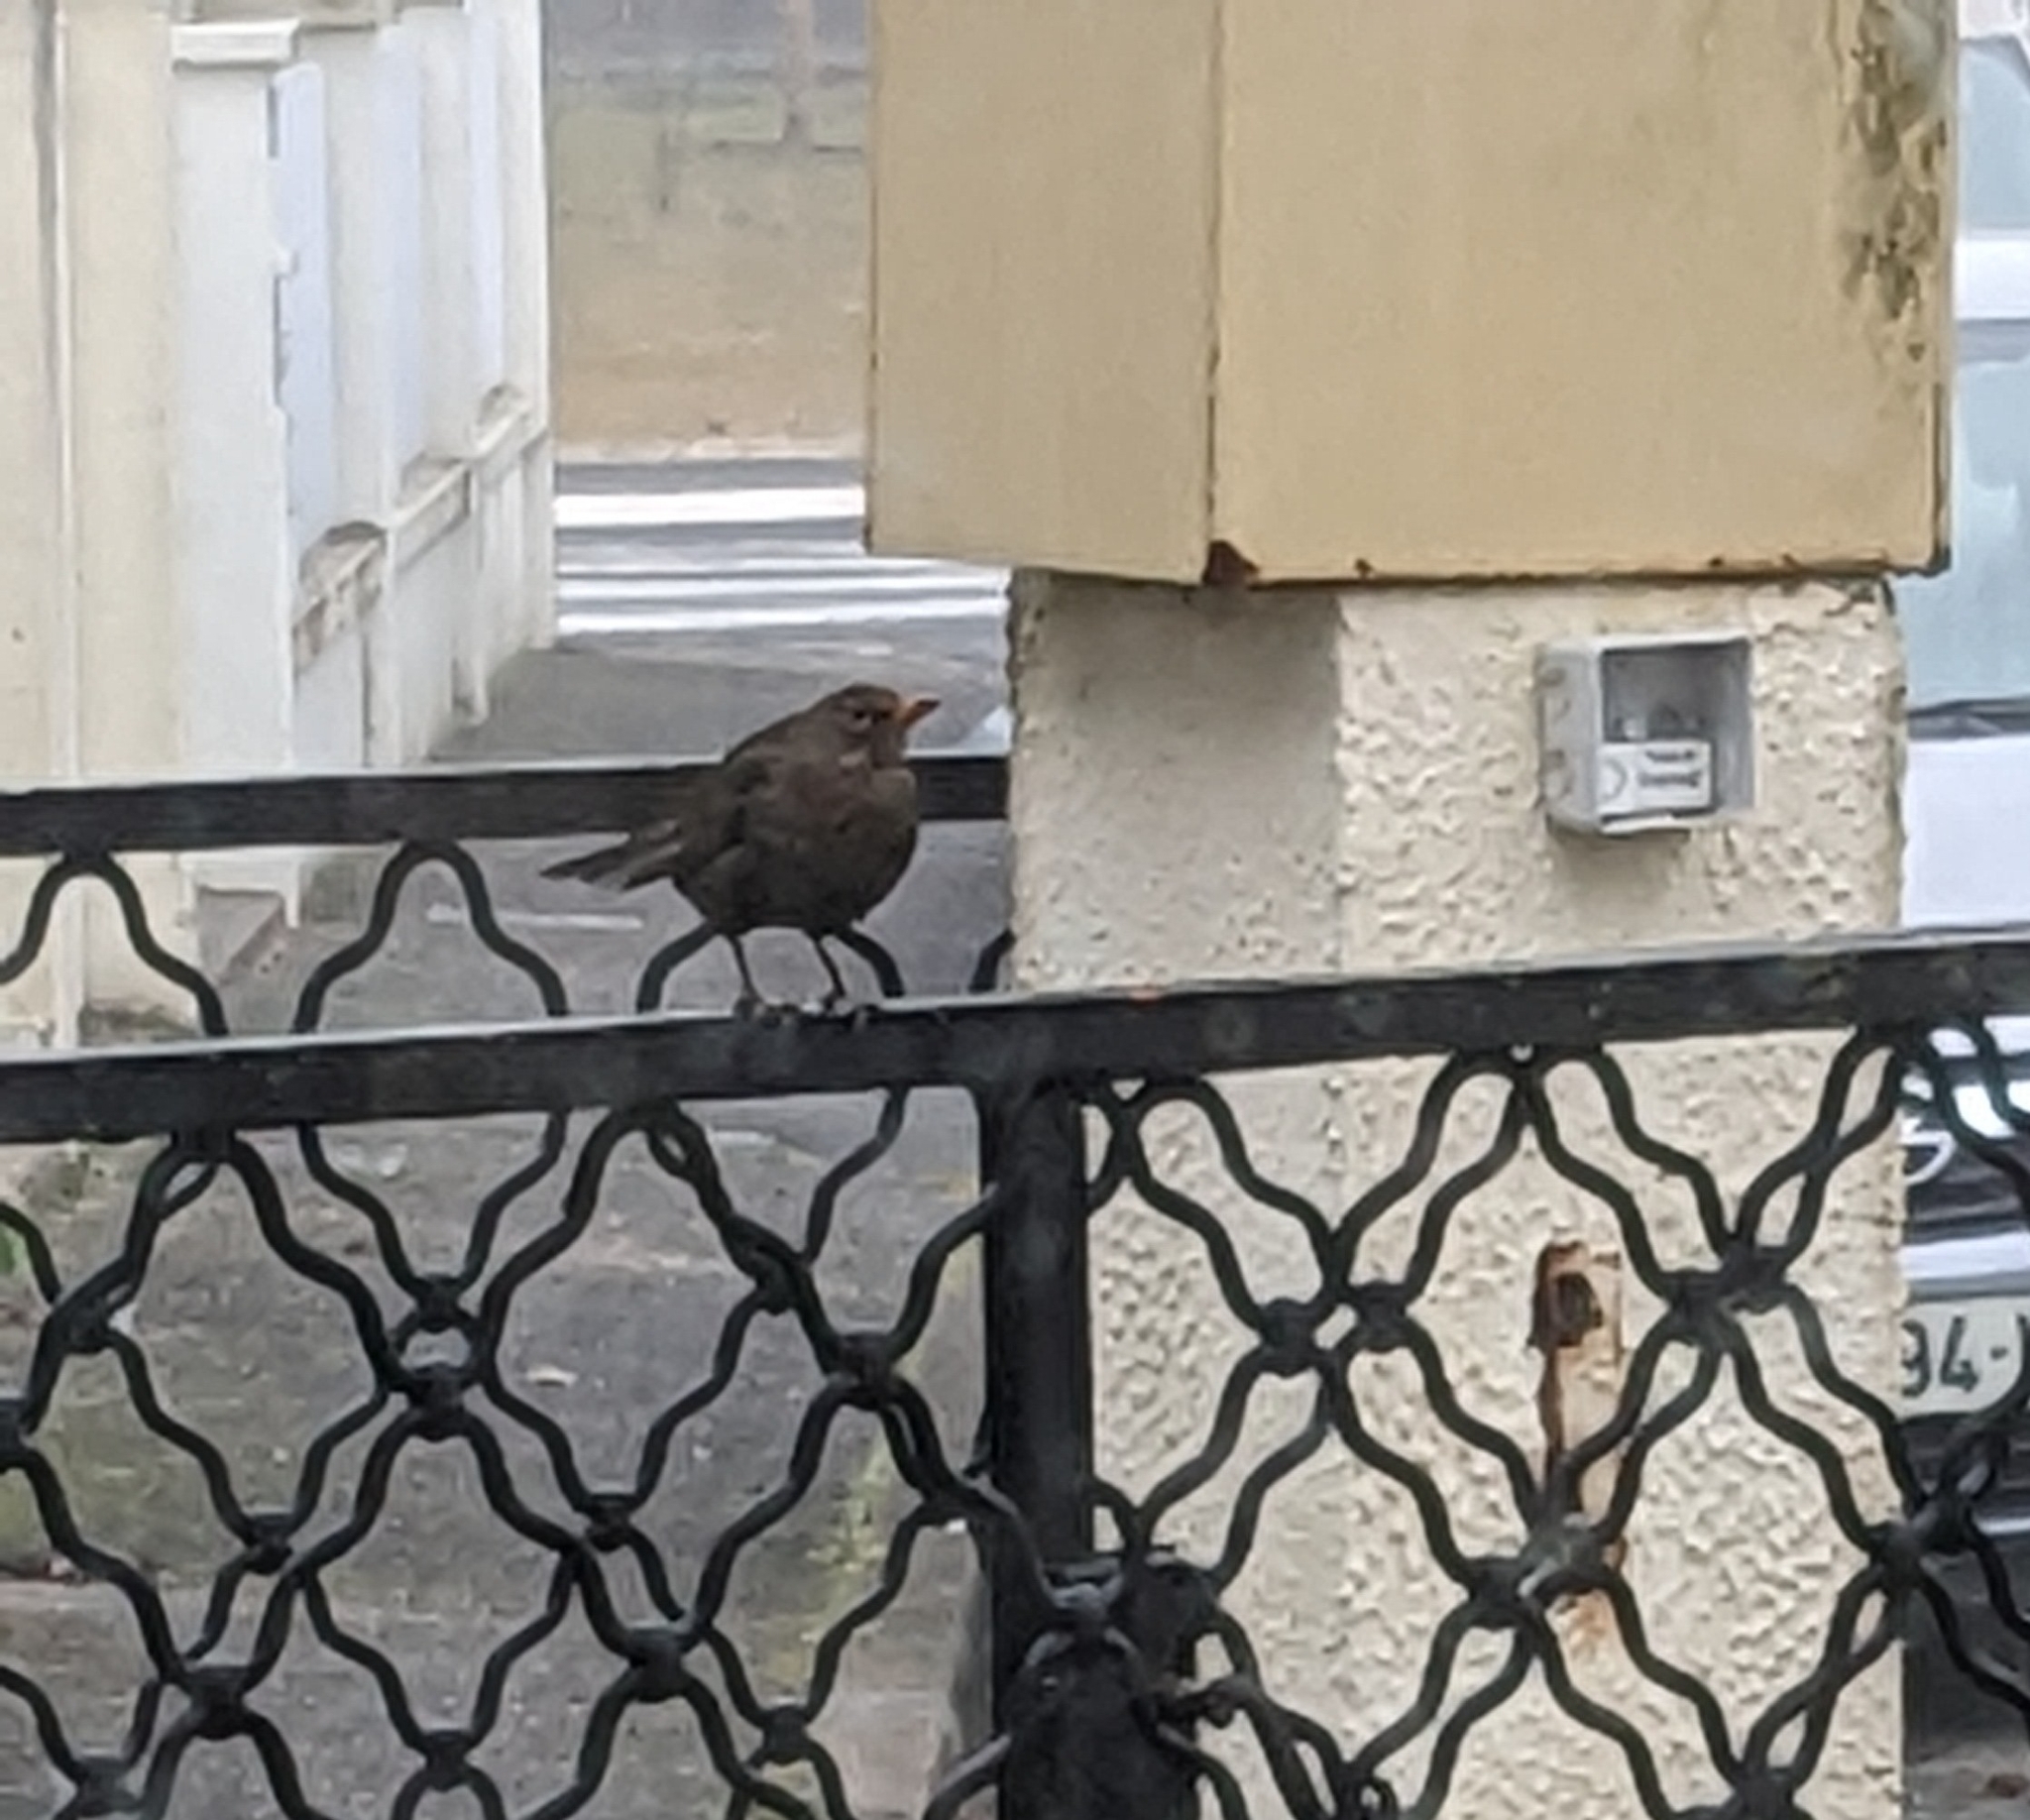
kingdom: Animalia
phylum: Chordata
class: Aves
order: Passeriformes
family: Turdidae
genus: Turdus
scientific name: Turdus merula
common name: Common blackbird
